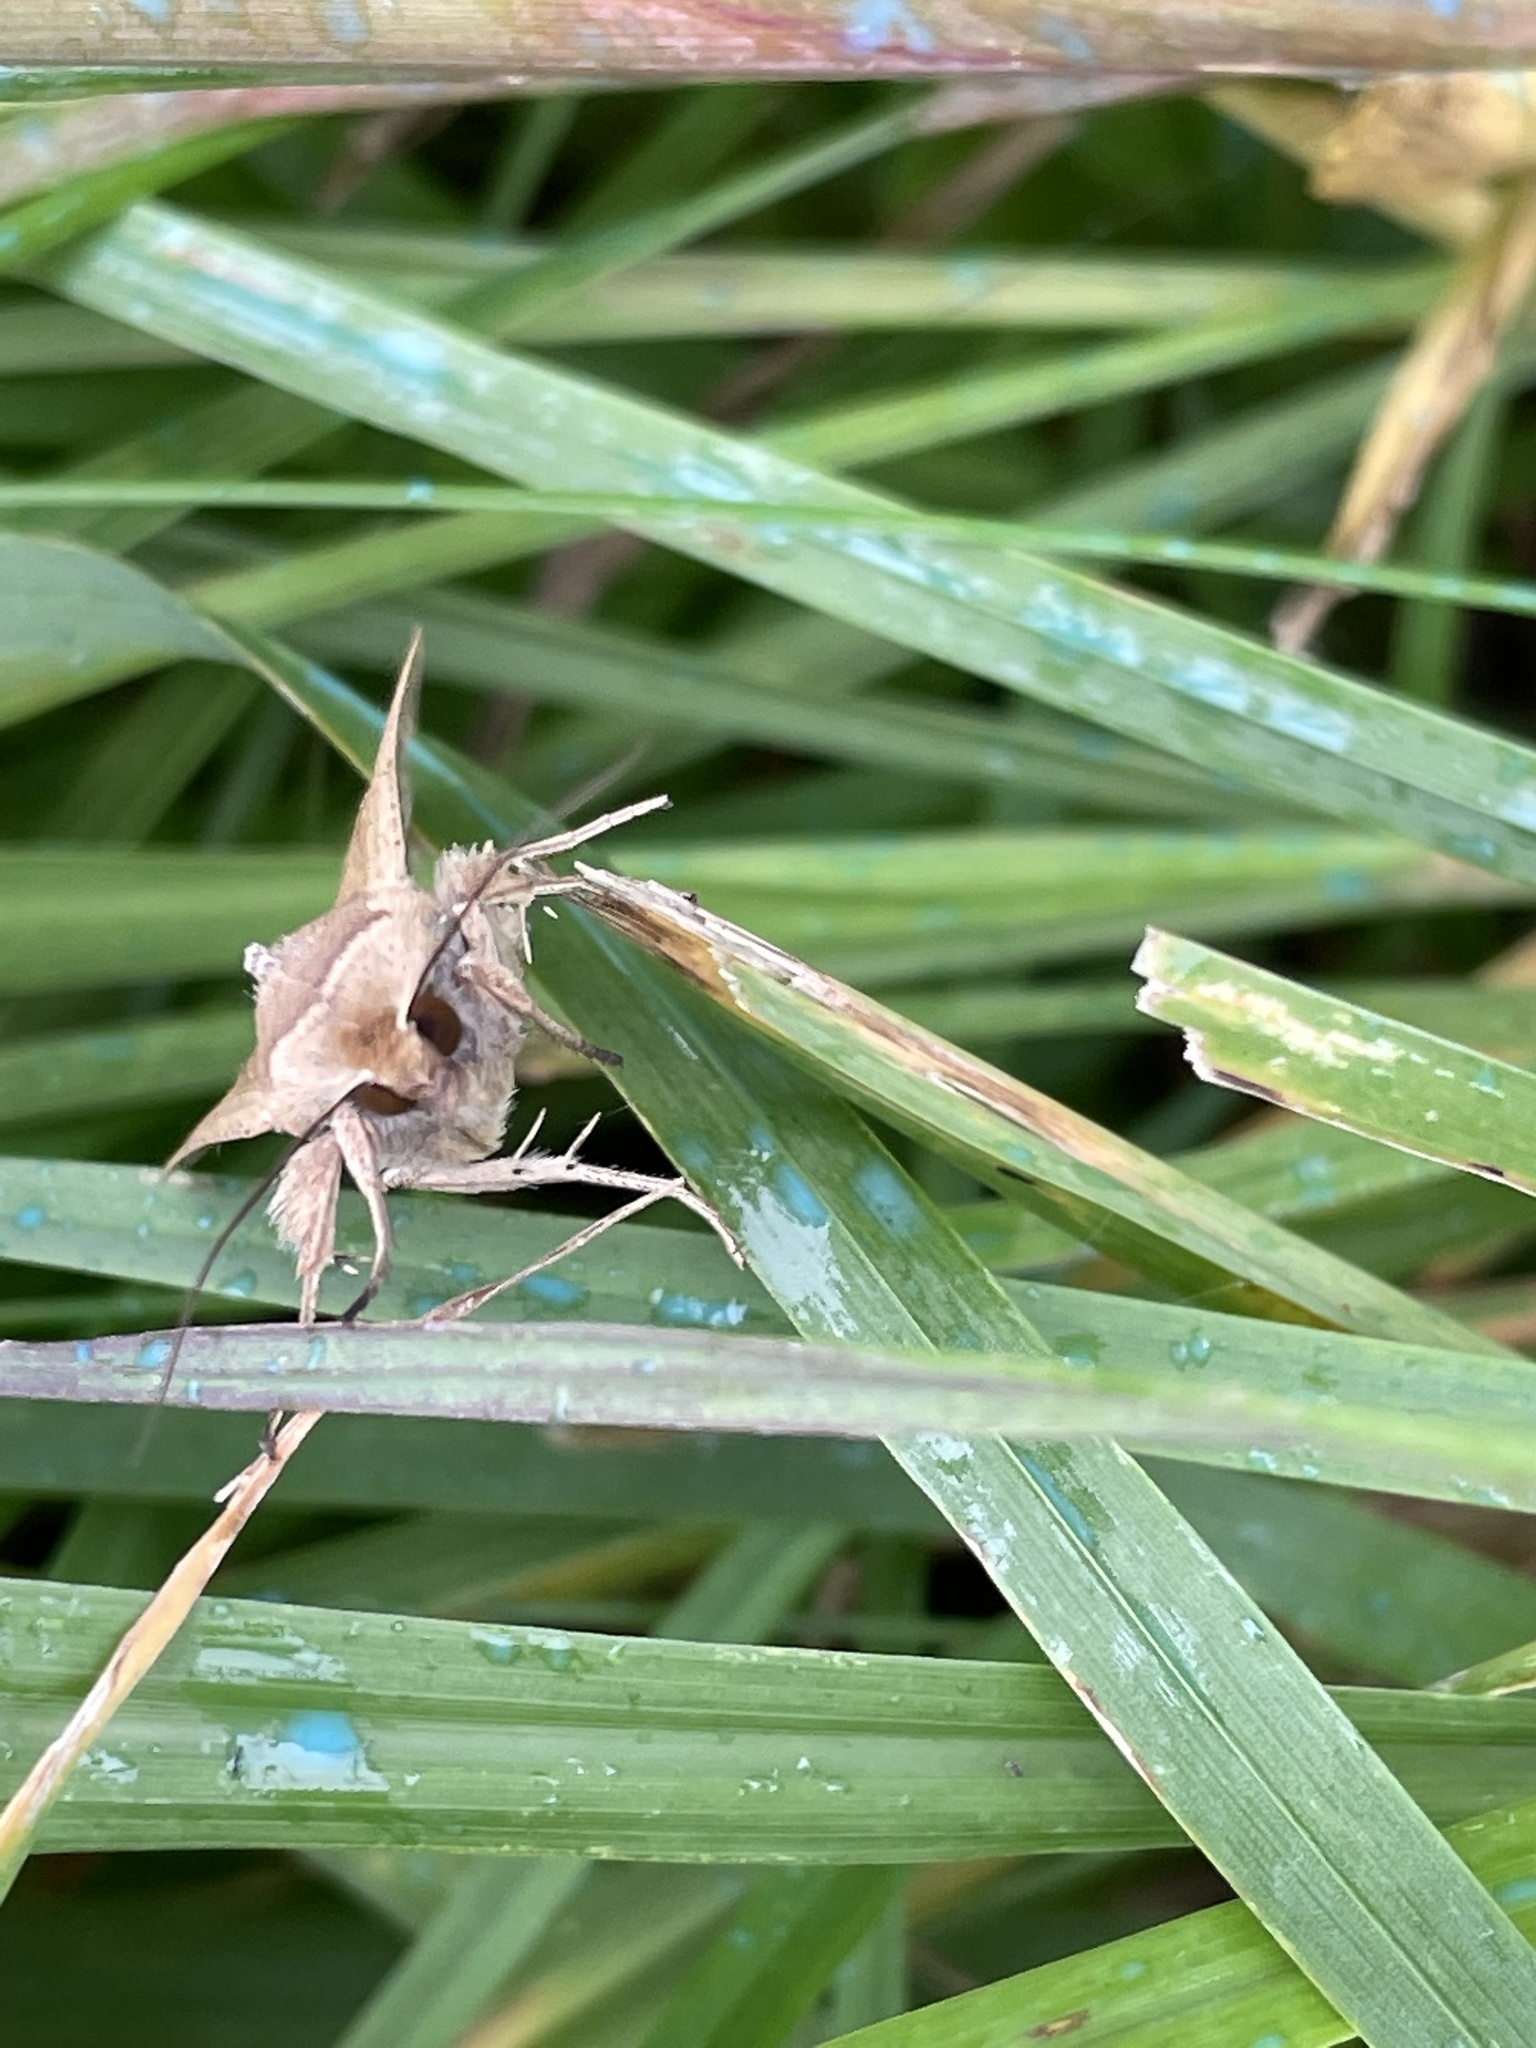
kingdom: Animalia
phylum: Arthropoda
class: Insecta
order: Lepidoptera
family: Noctuidae
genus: Mythimna
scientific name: Mythimna unipuncta
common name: White-speck
